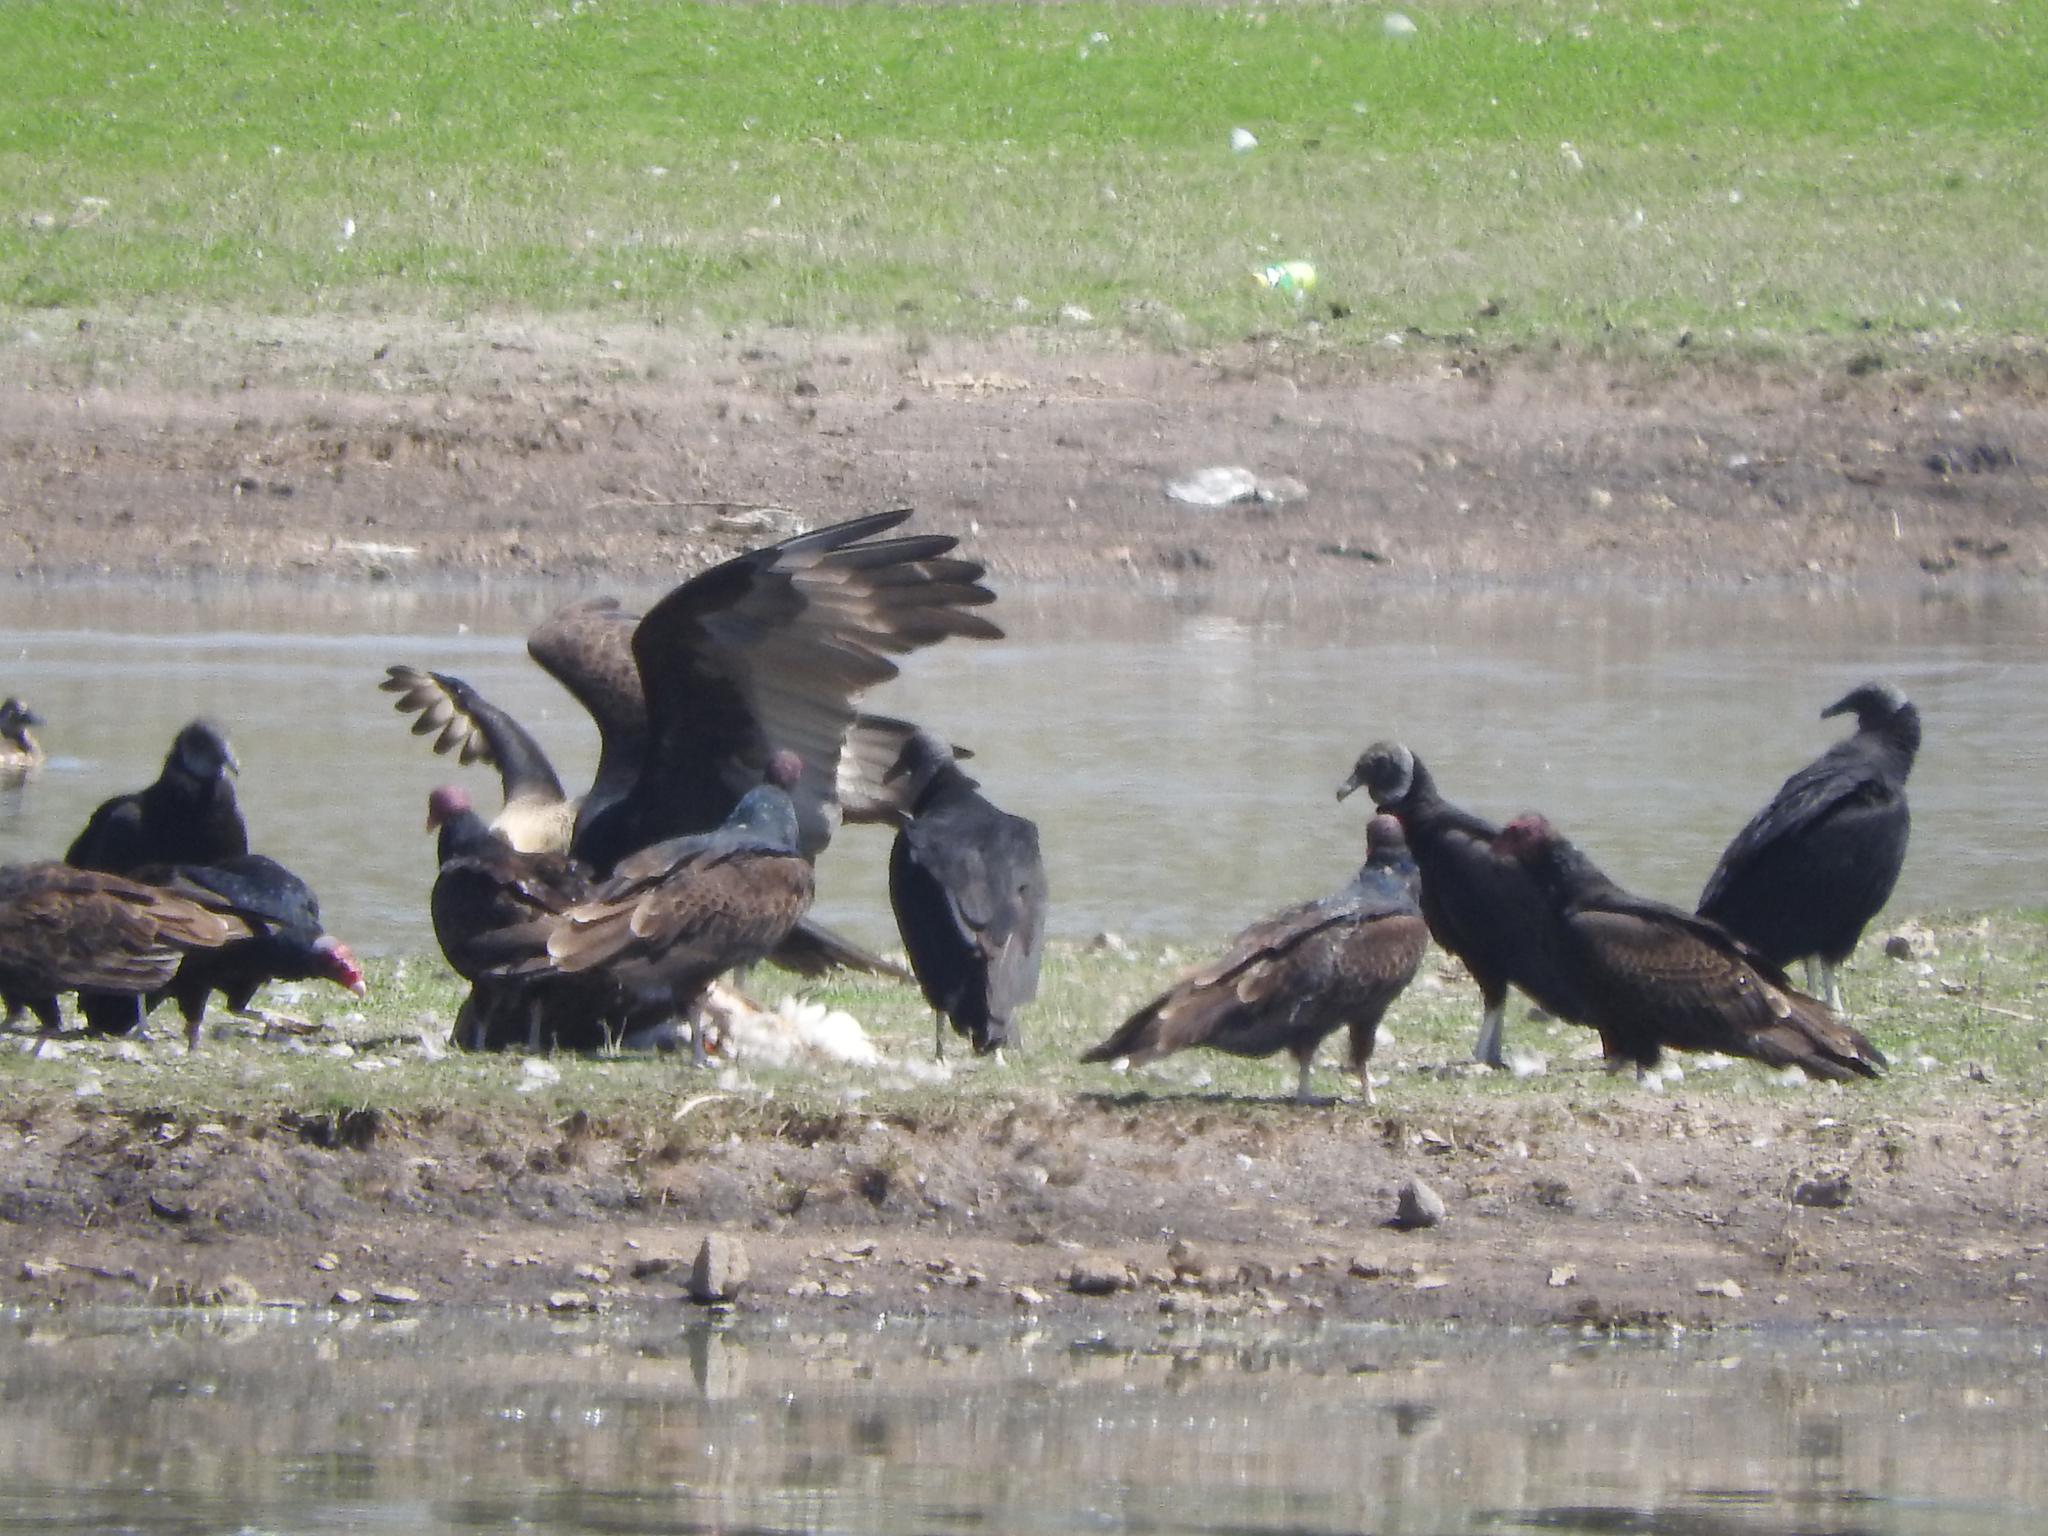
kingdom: Animalia
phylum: Chordata
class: Aves
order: Accipitriformes
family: Cathartidae
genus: Coragyps
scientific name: Coragyps atratus
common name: Black vulture
